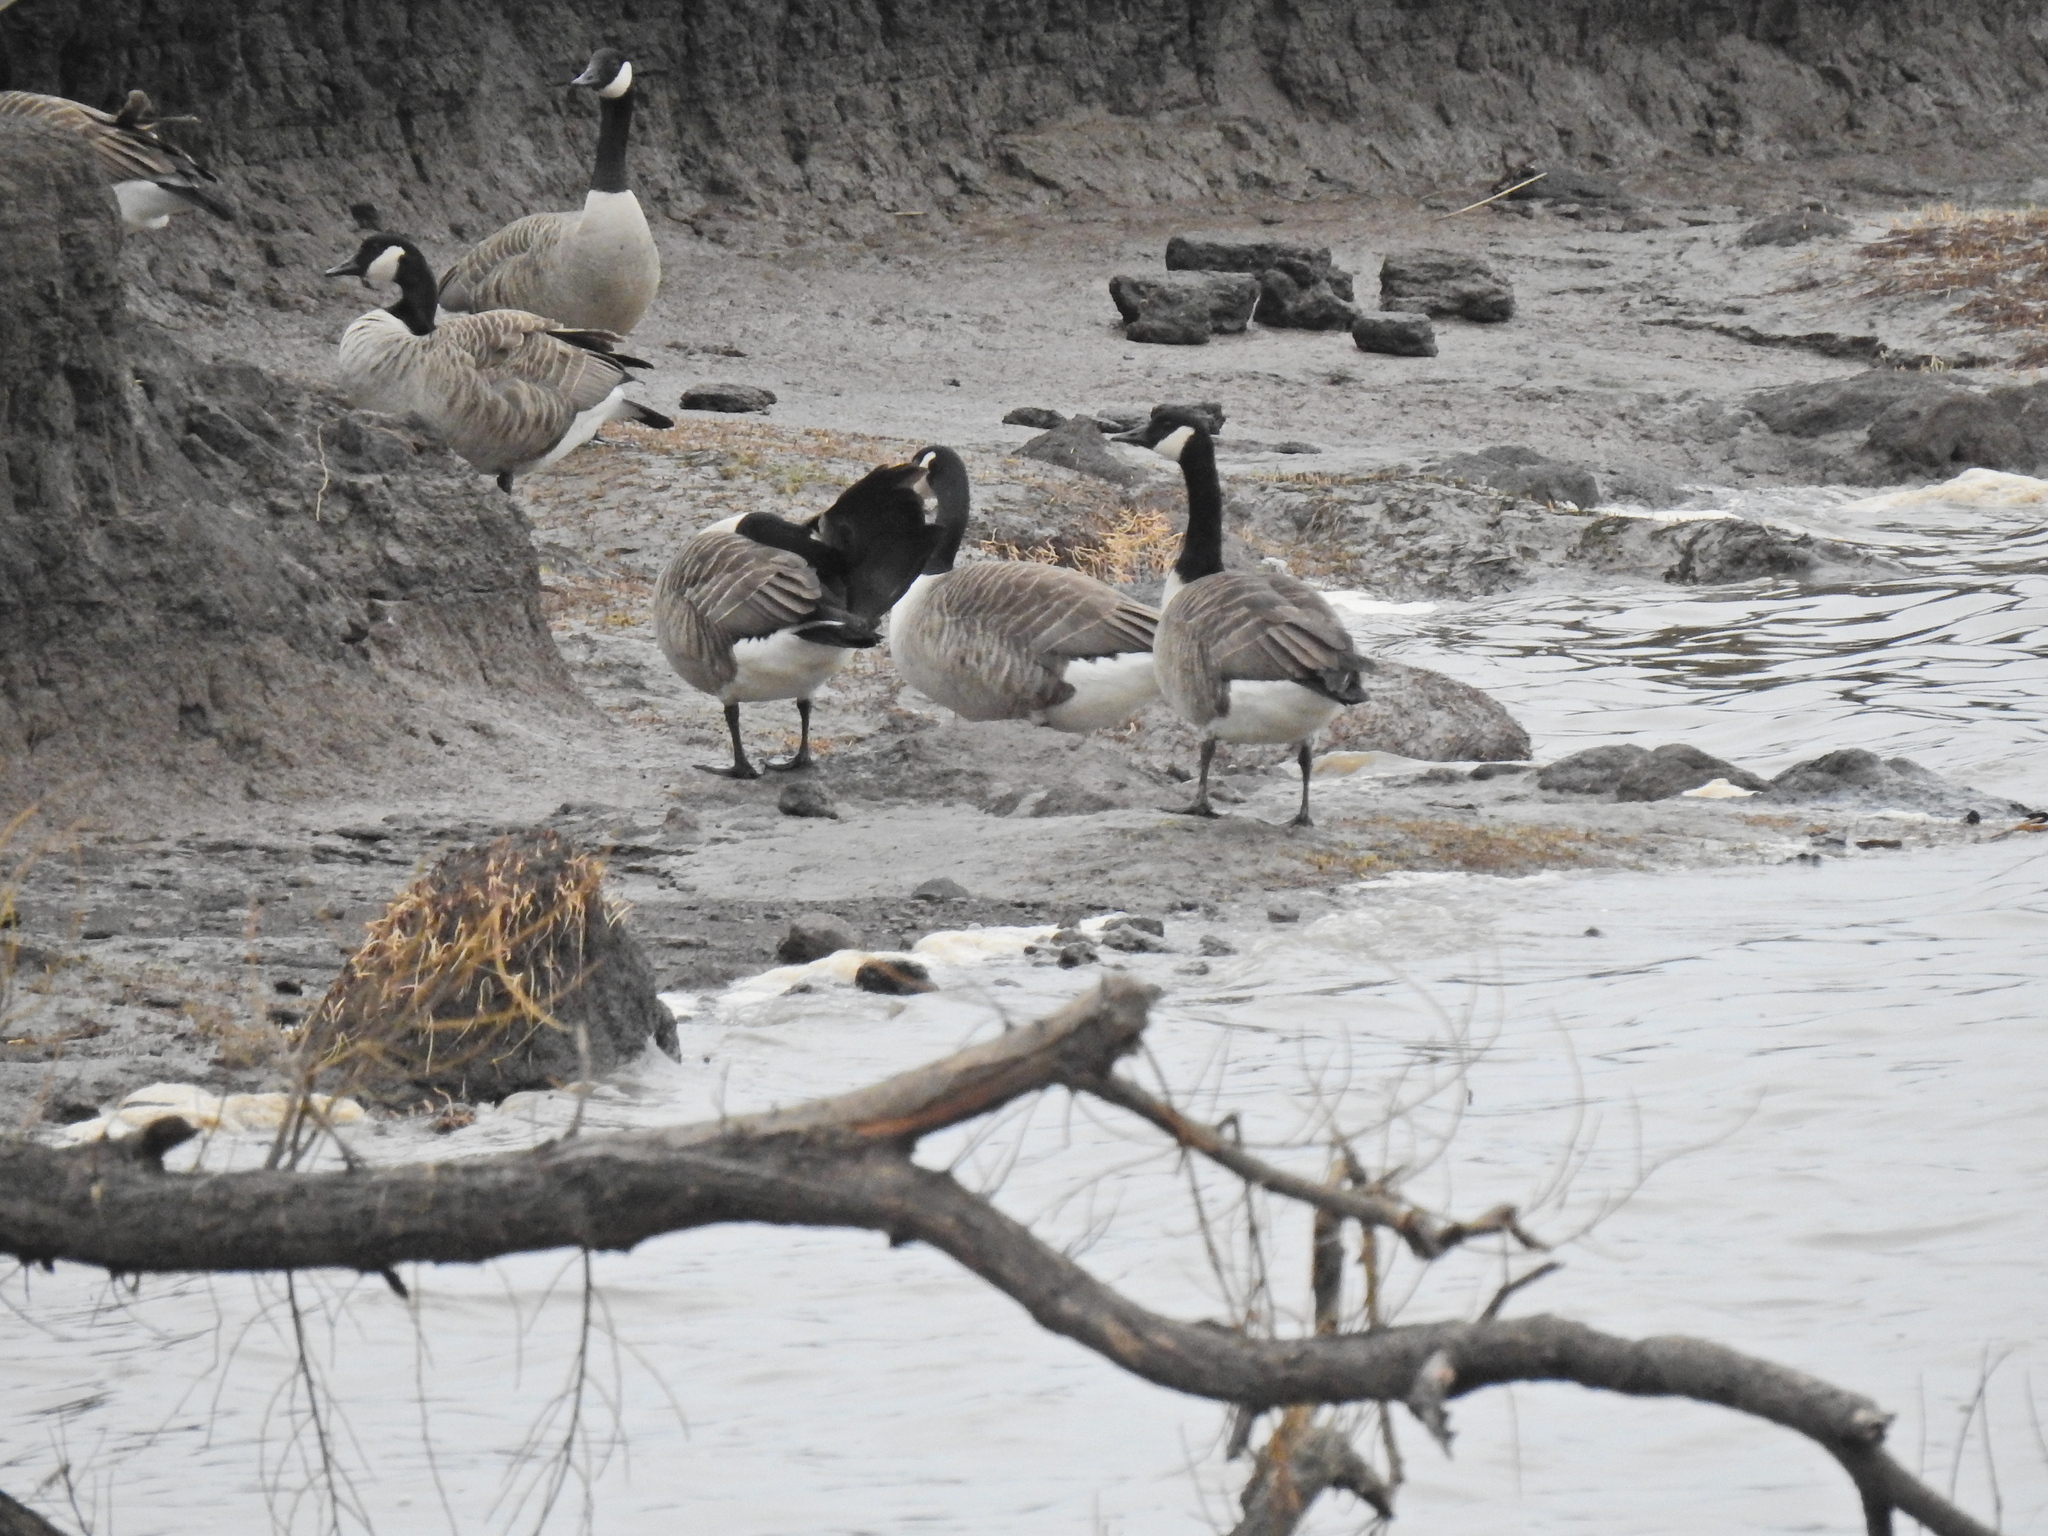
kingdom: Animalia
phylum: Chordata
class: Aves
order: Anseriformes
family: Anatidae
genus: Branta
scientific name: Branta canadensis
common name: Canada goose
